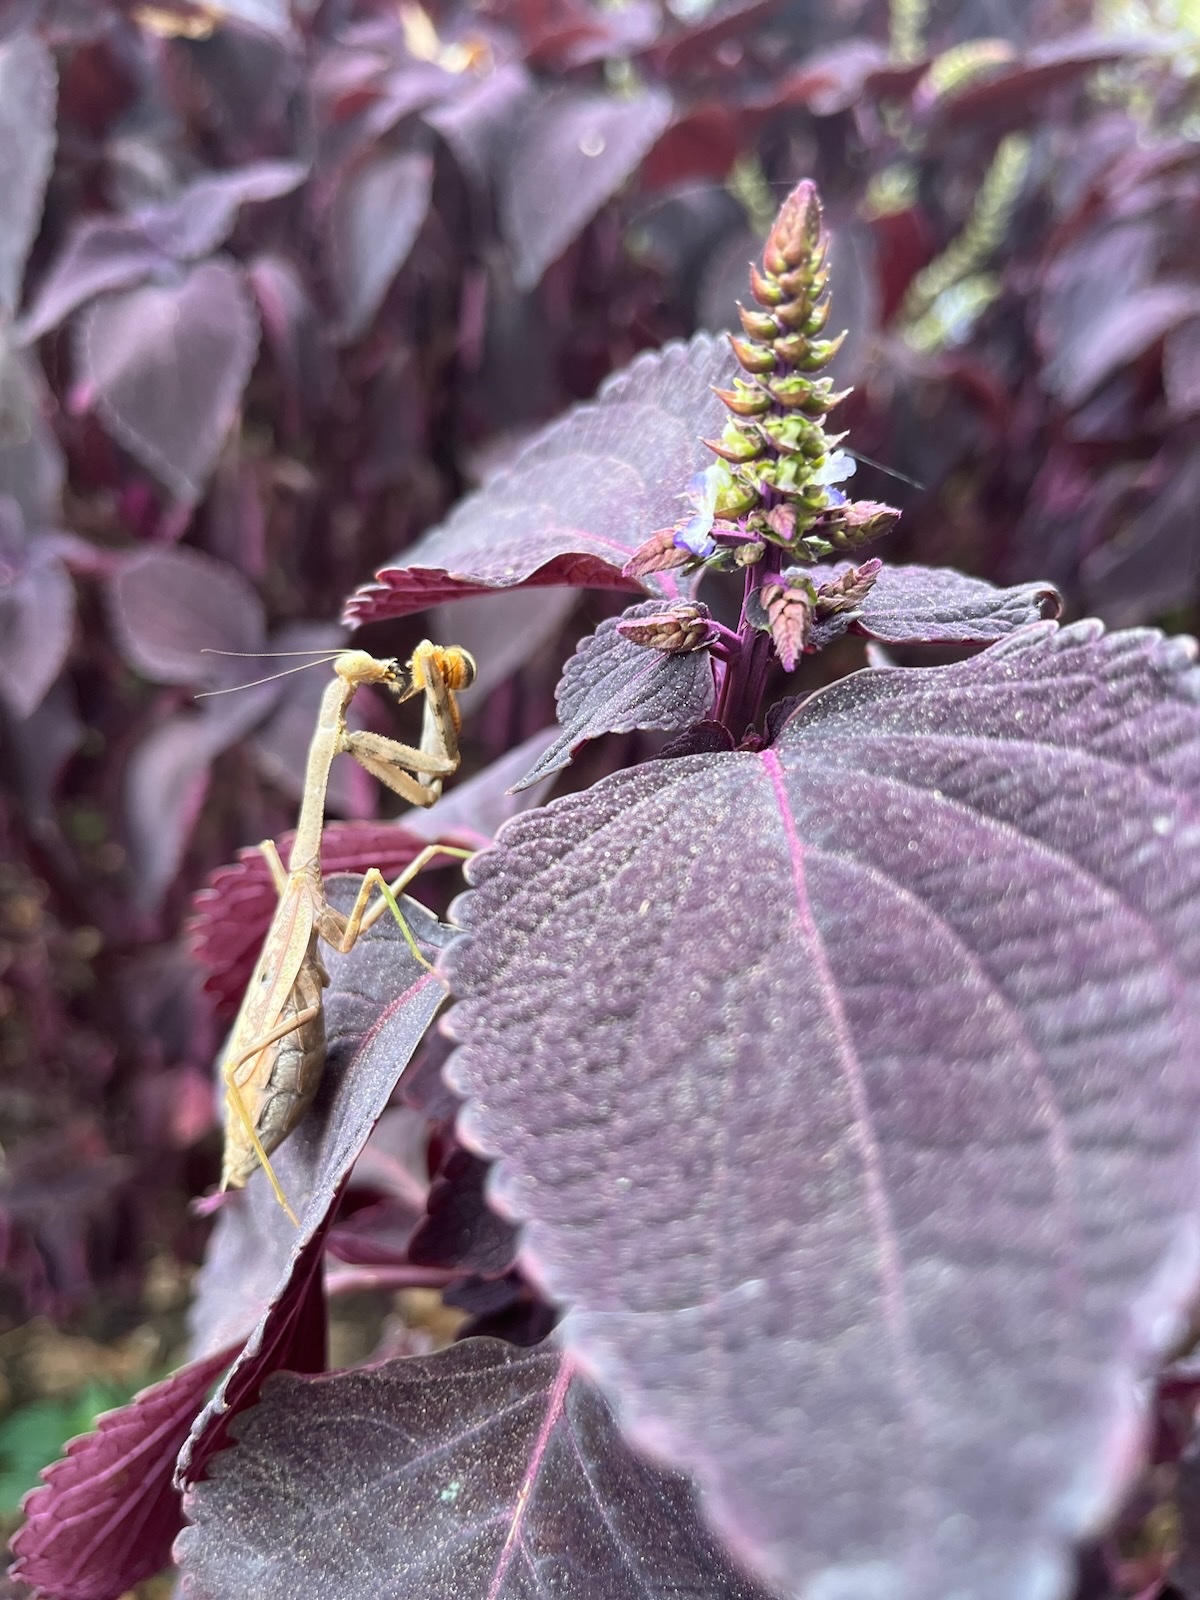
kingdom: Animalia
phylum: Arthropoda
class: Insecta
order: Mantodea
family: Mantidae
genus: Stagmomantis
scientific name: Stagmomantis carolina
